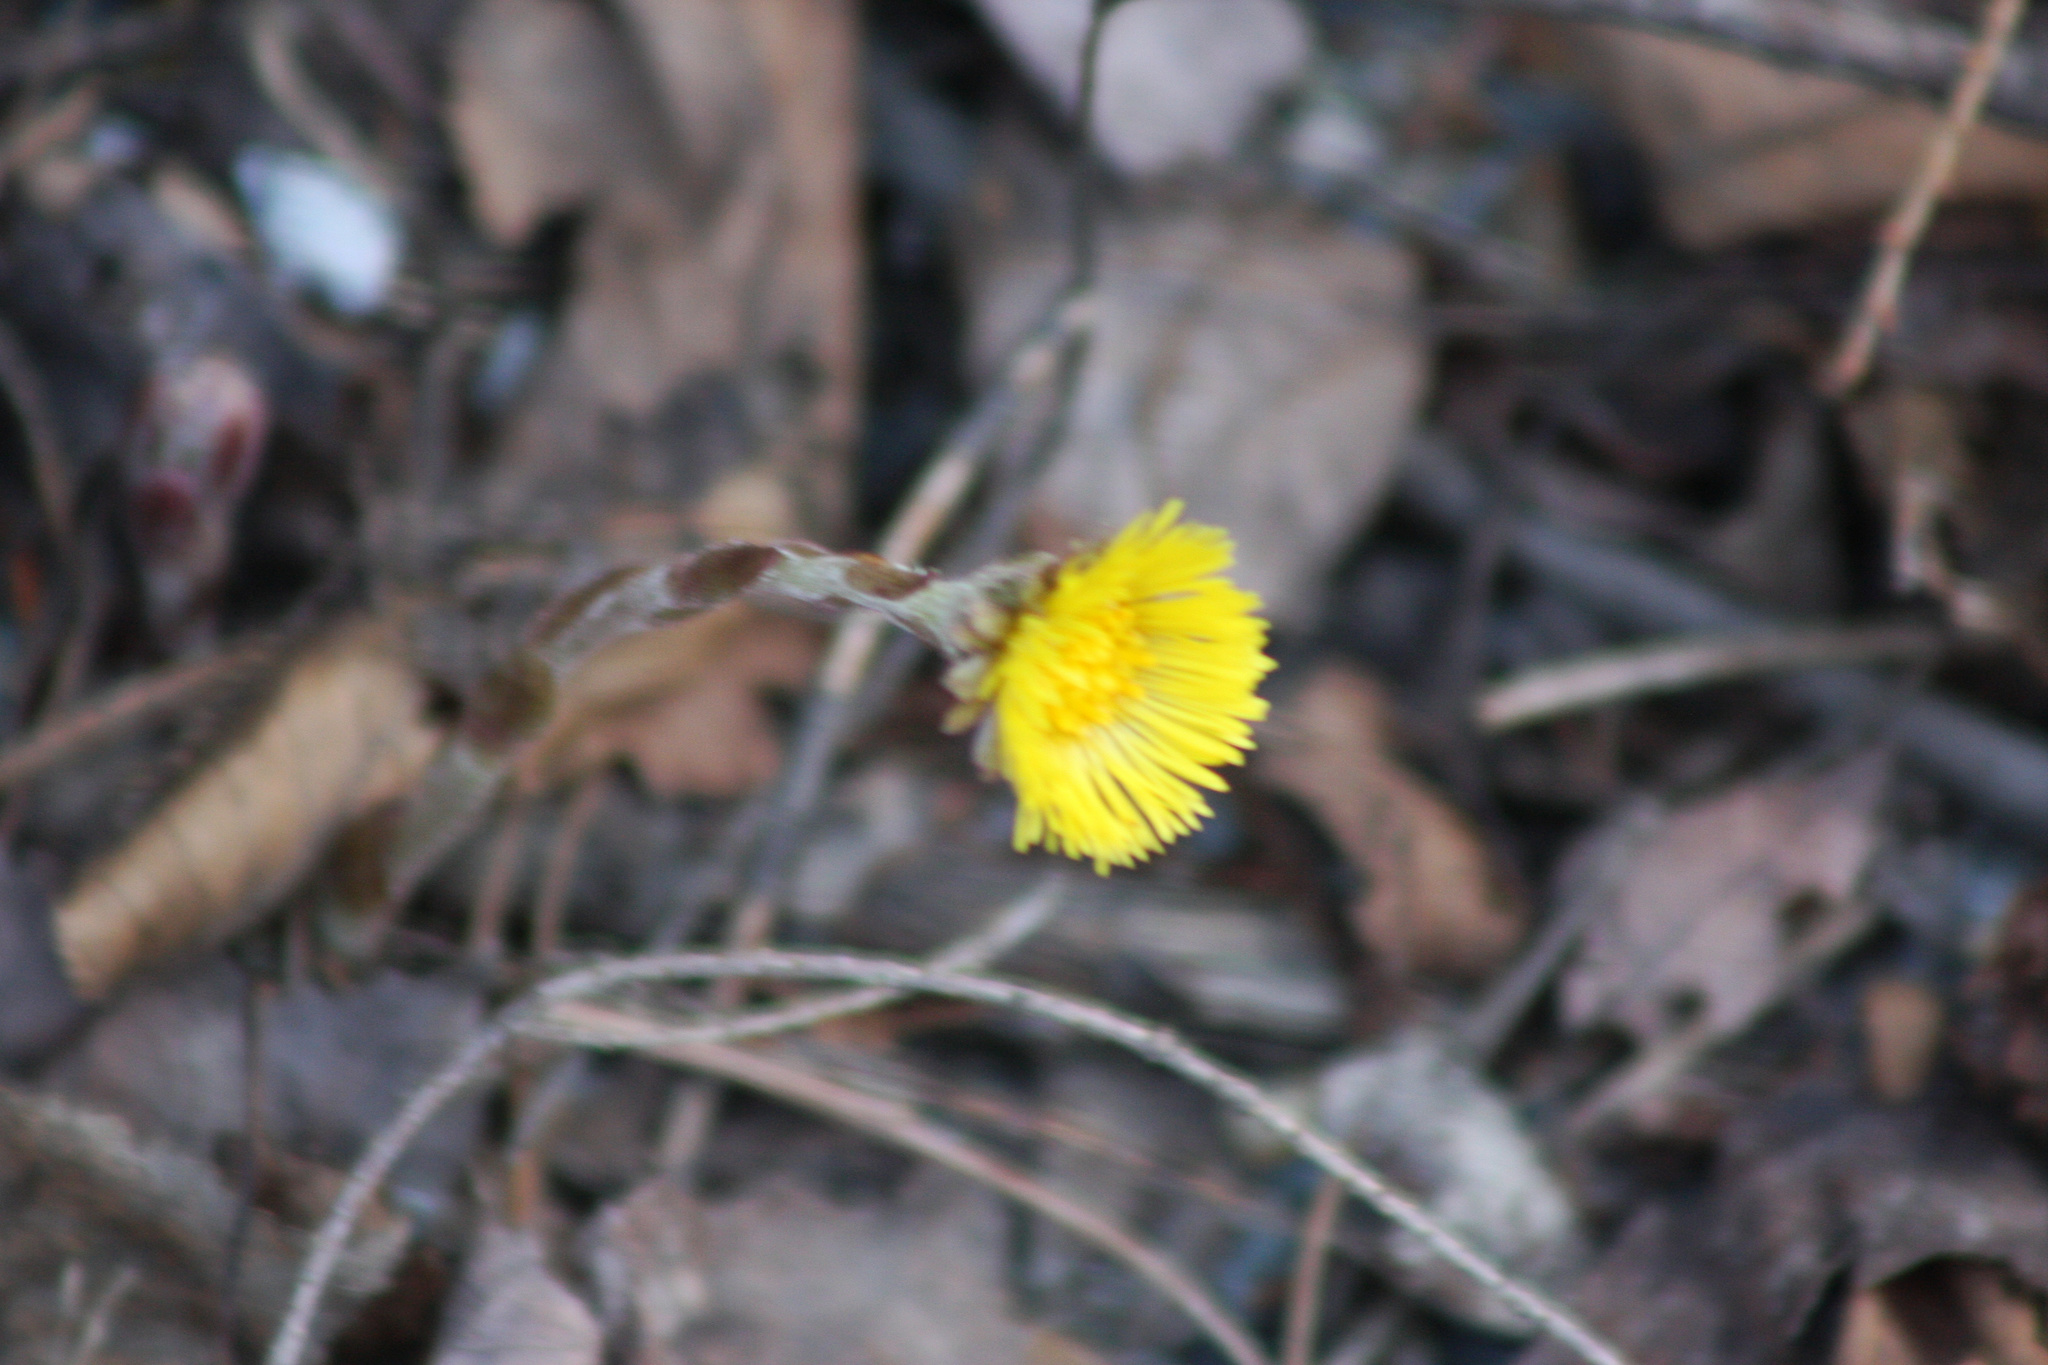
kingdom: Plantae
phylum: Tracheophyta
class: Magnoliopsida
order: Asterales
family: Asteraceae
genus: Tussilago
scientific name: Tussilago farfara
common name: Coltsfoot
